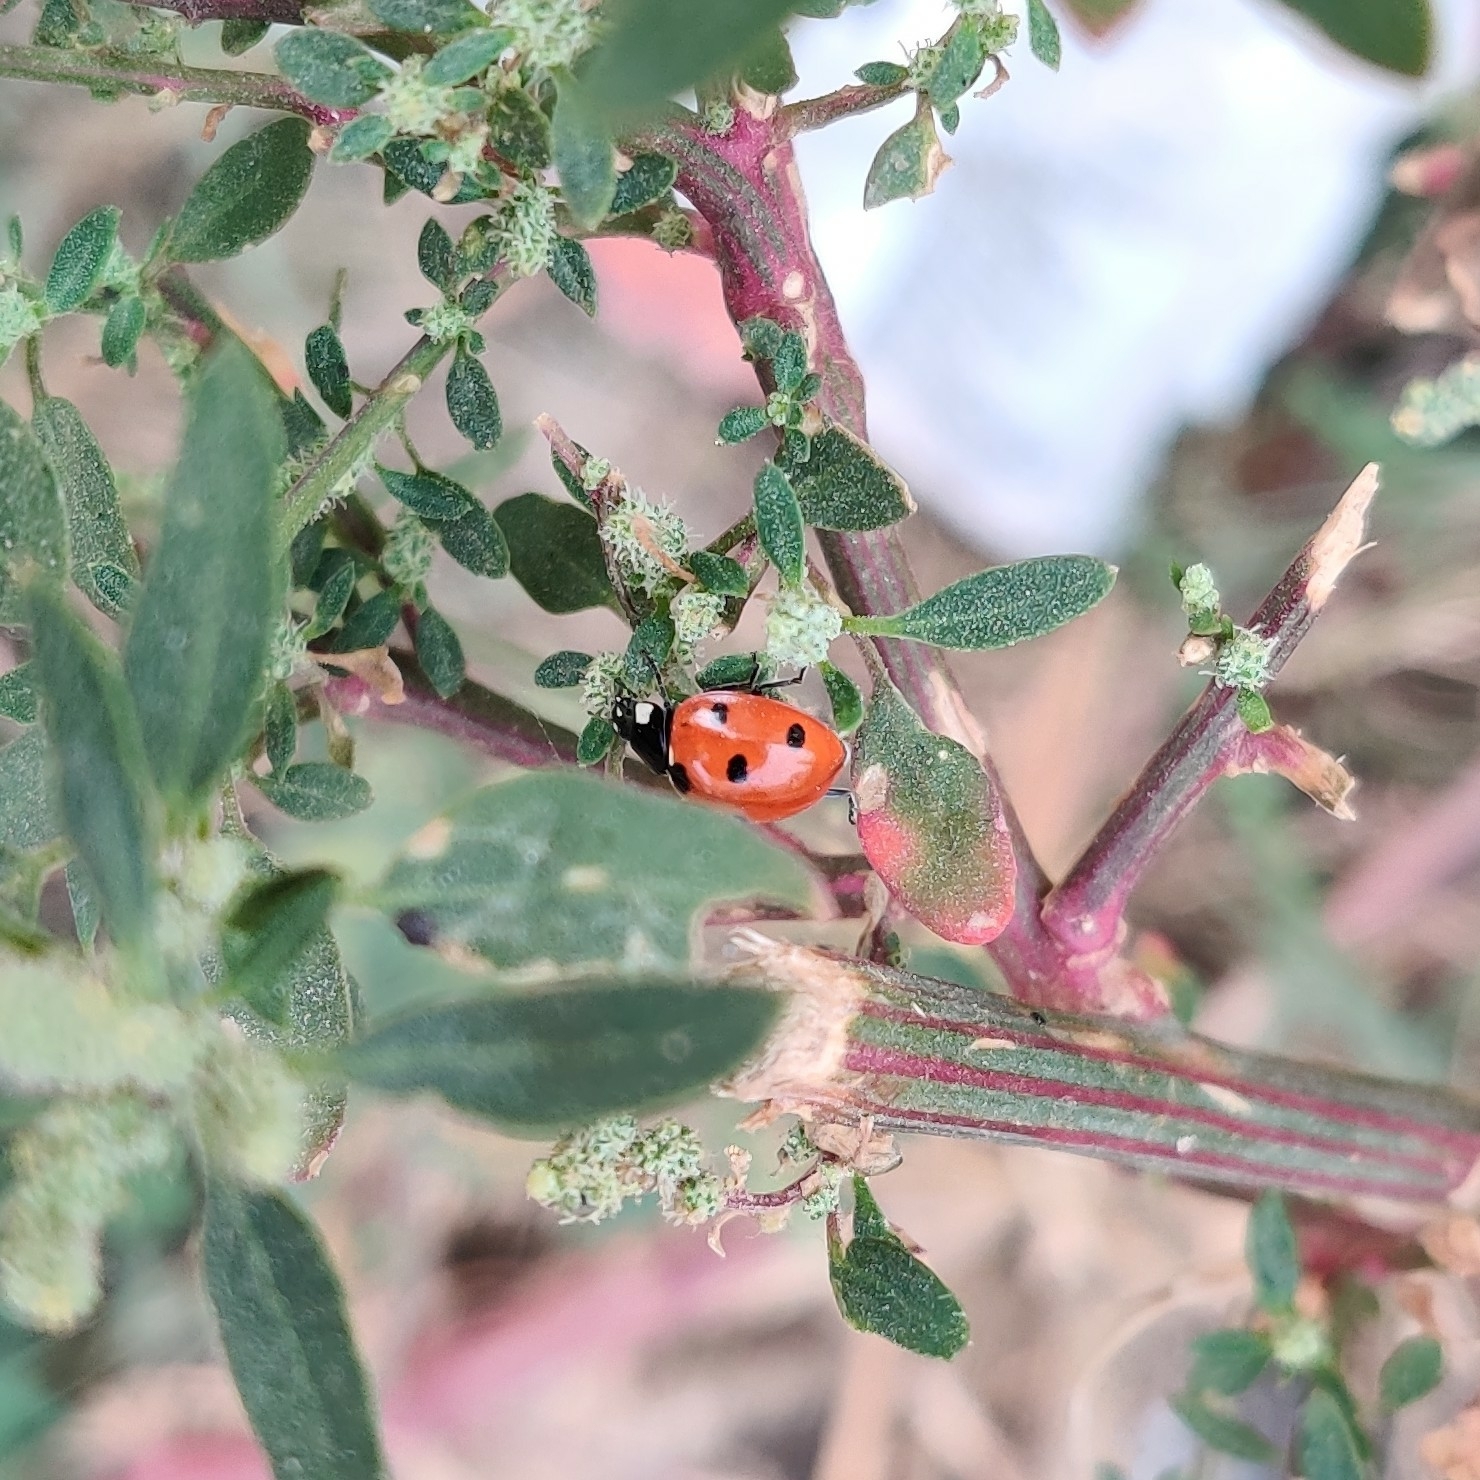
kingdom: Animalia
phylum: Arthropoda
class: Insecta
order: Coleoptera
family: Coccinellidae
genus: Coccinella
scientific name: Coccinella septempunctata
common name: Sevenspotted lady beetle
